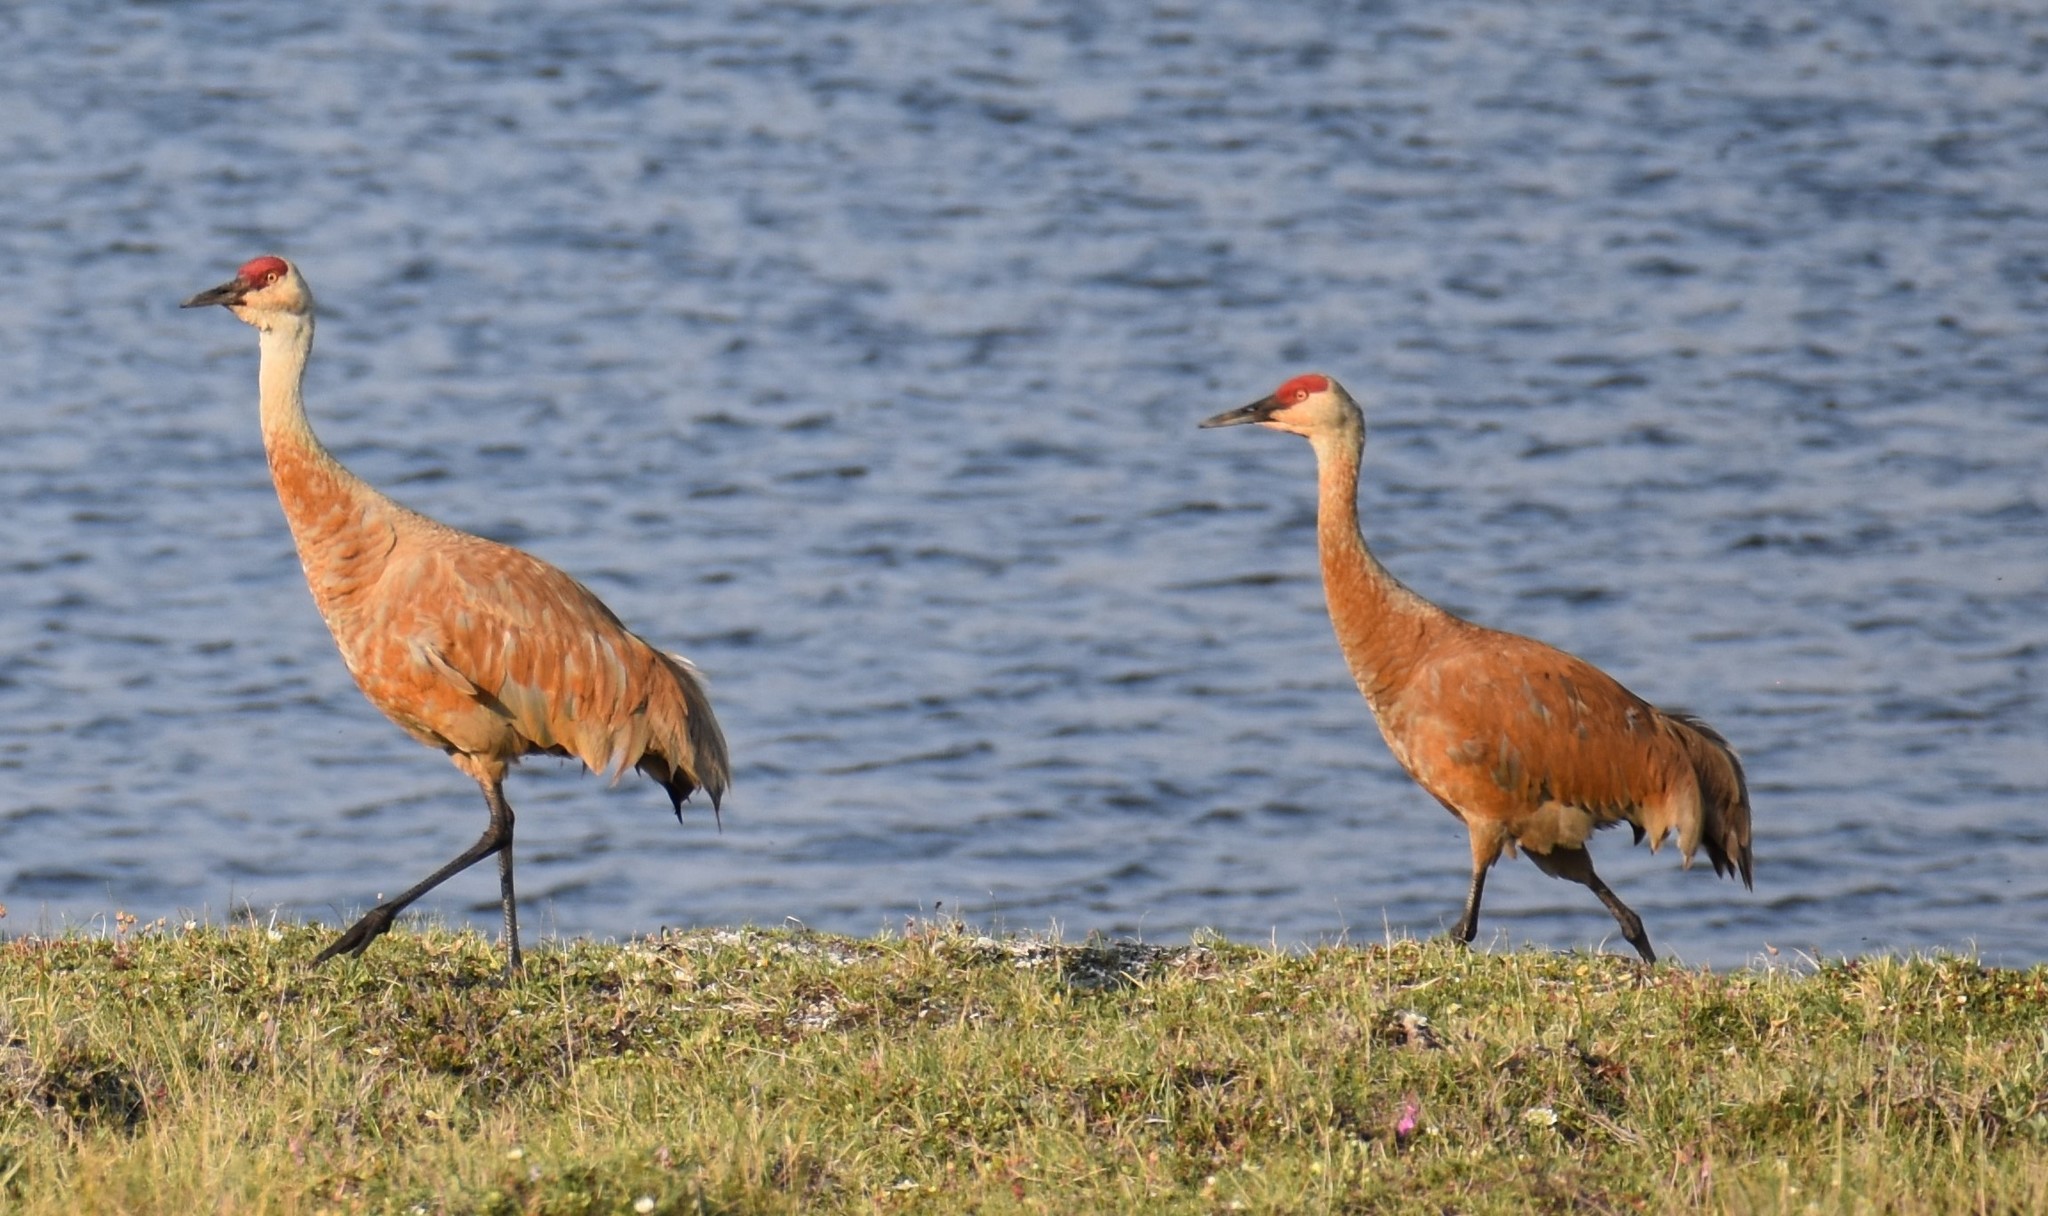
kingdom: Animalia
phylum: Chordata
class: Aves
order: Gruiformes
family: Gruidae
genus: Grus
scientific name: Grus canadensis
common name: Sandhill crane
